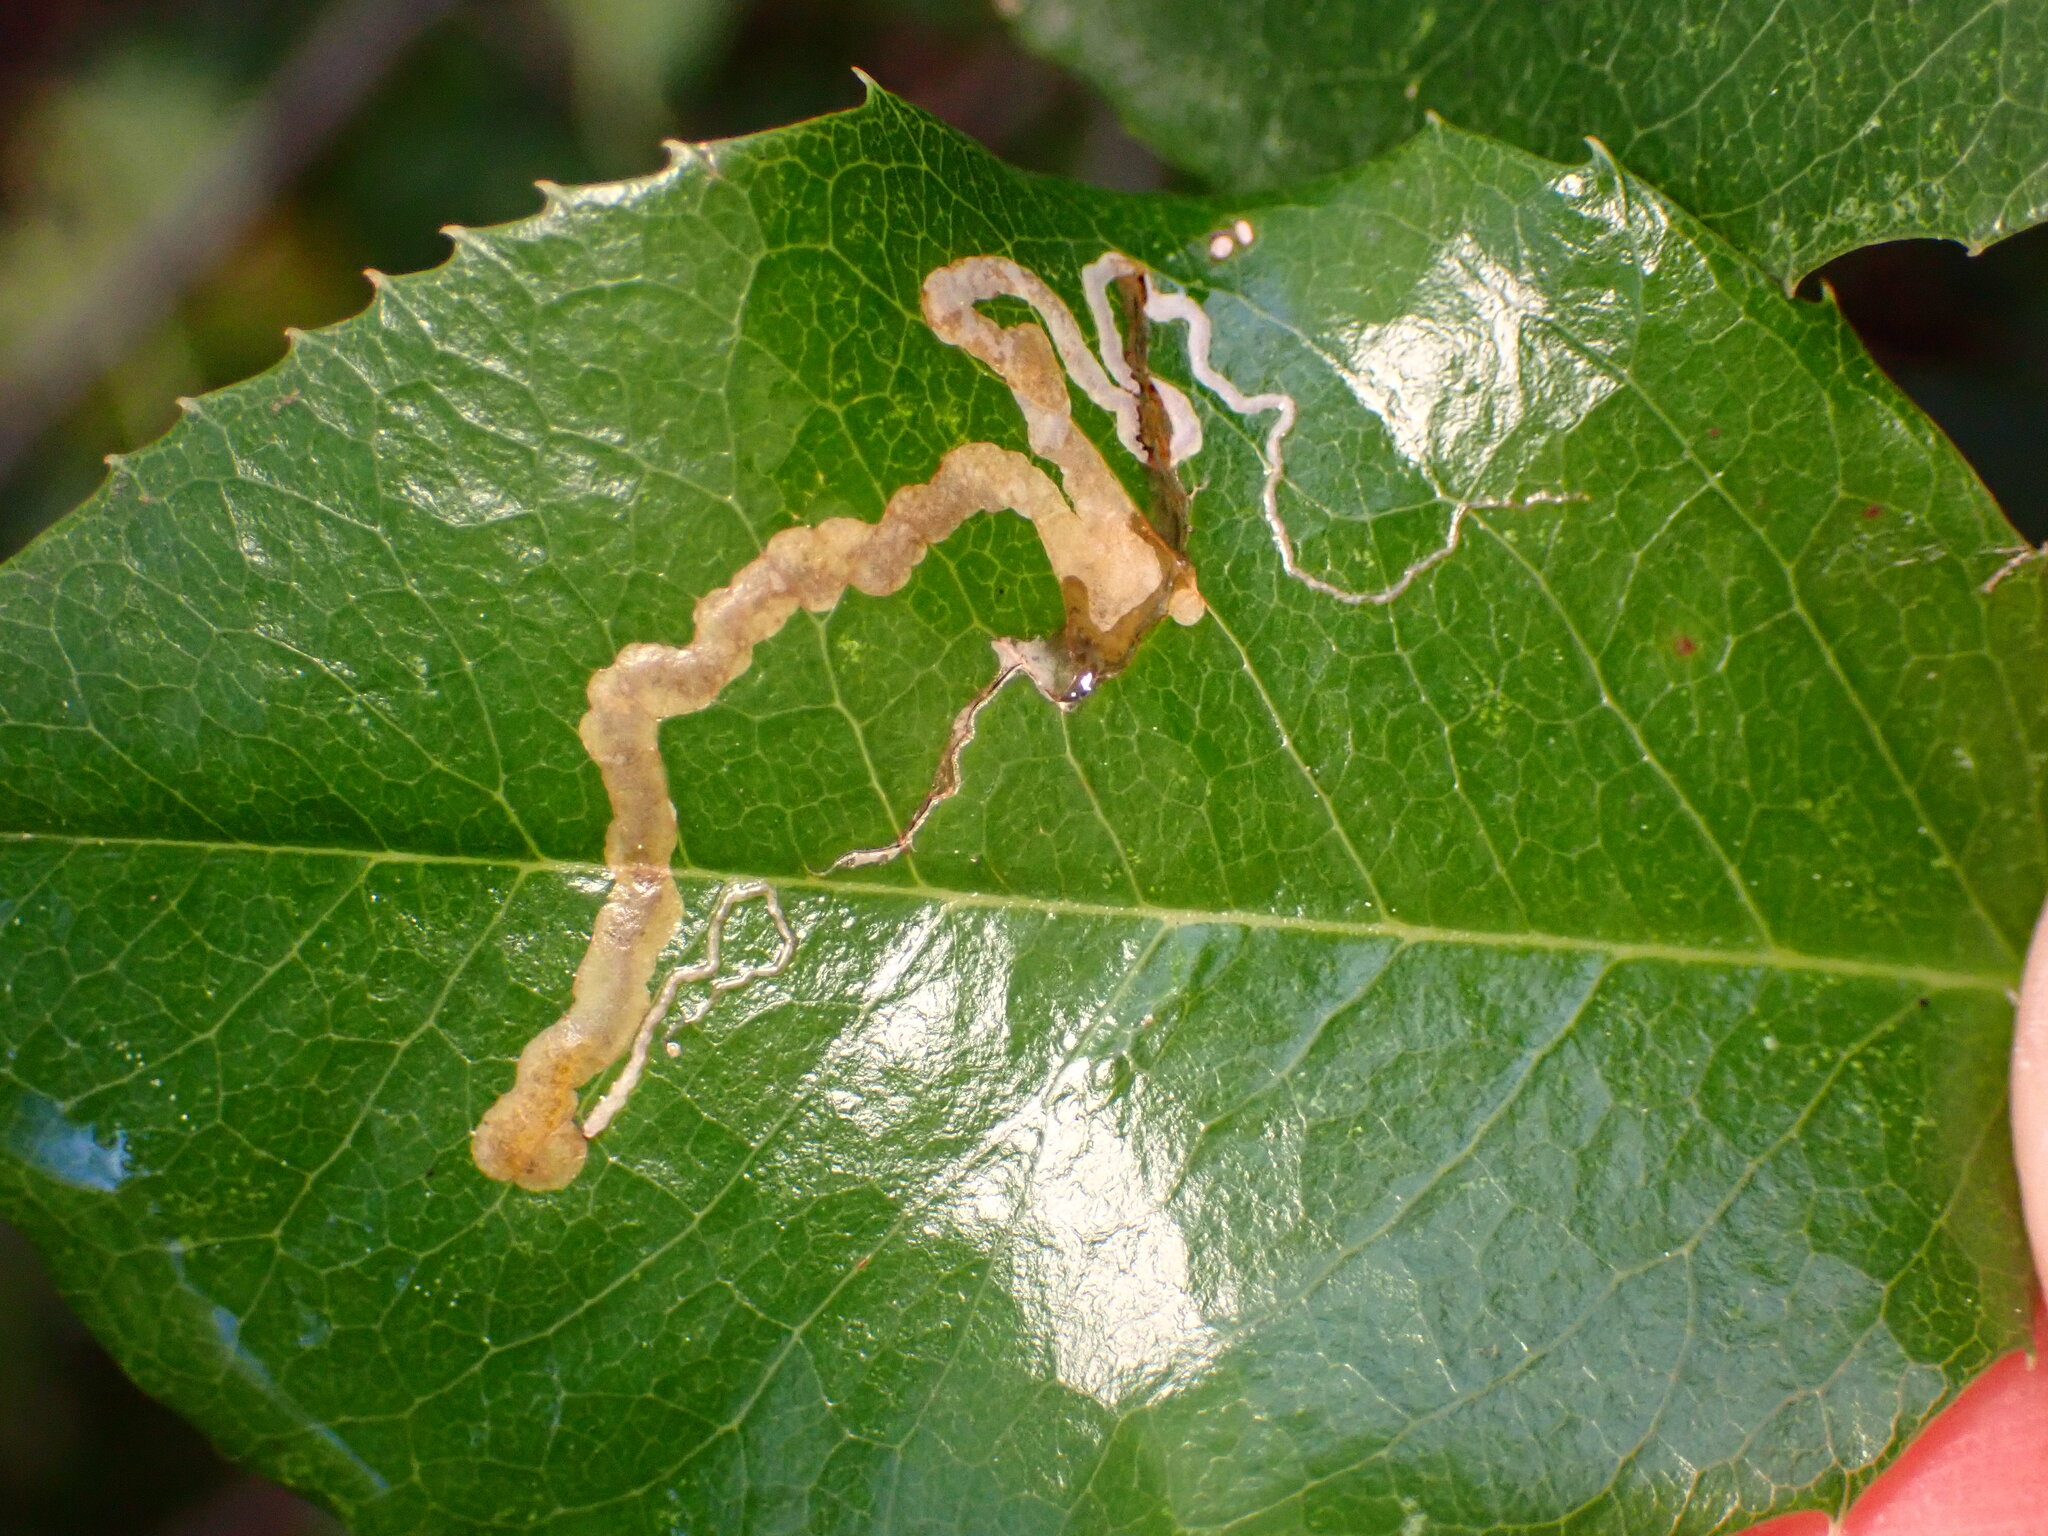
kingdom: Animalia
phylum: Arthropoda
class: Insecta
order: Lepidoptera
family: Nepticulidae
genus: Stigmella
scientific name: Stigmella braunella
